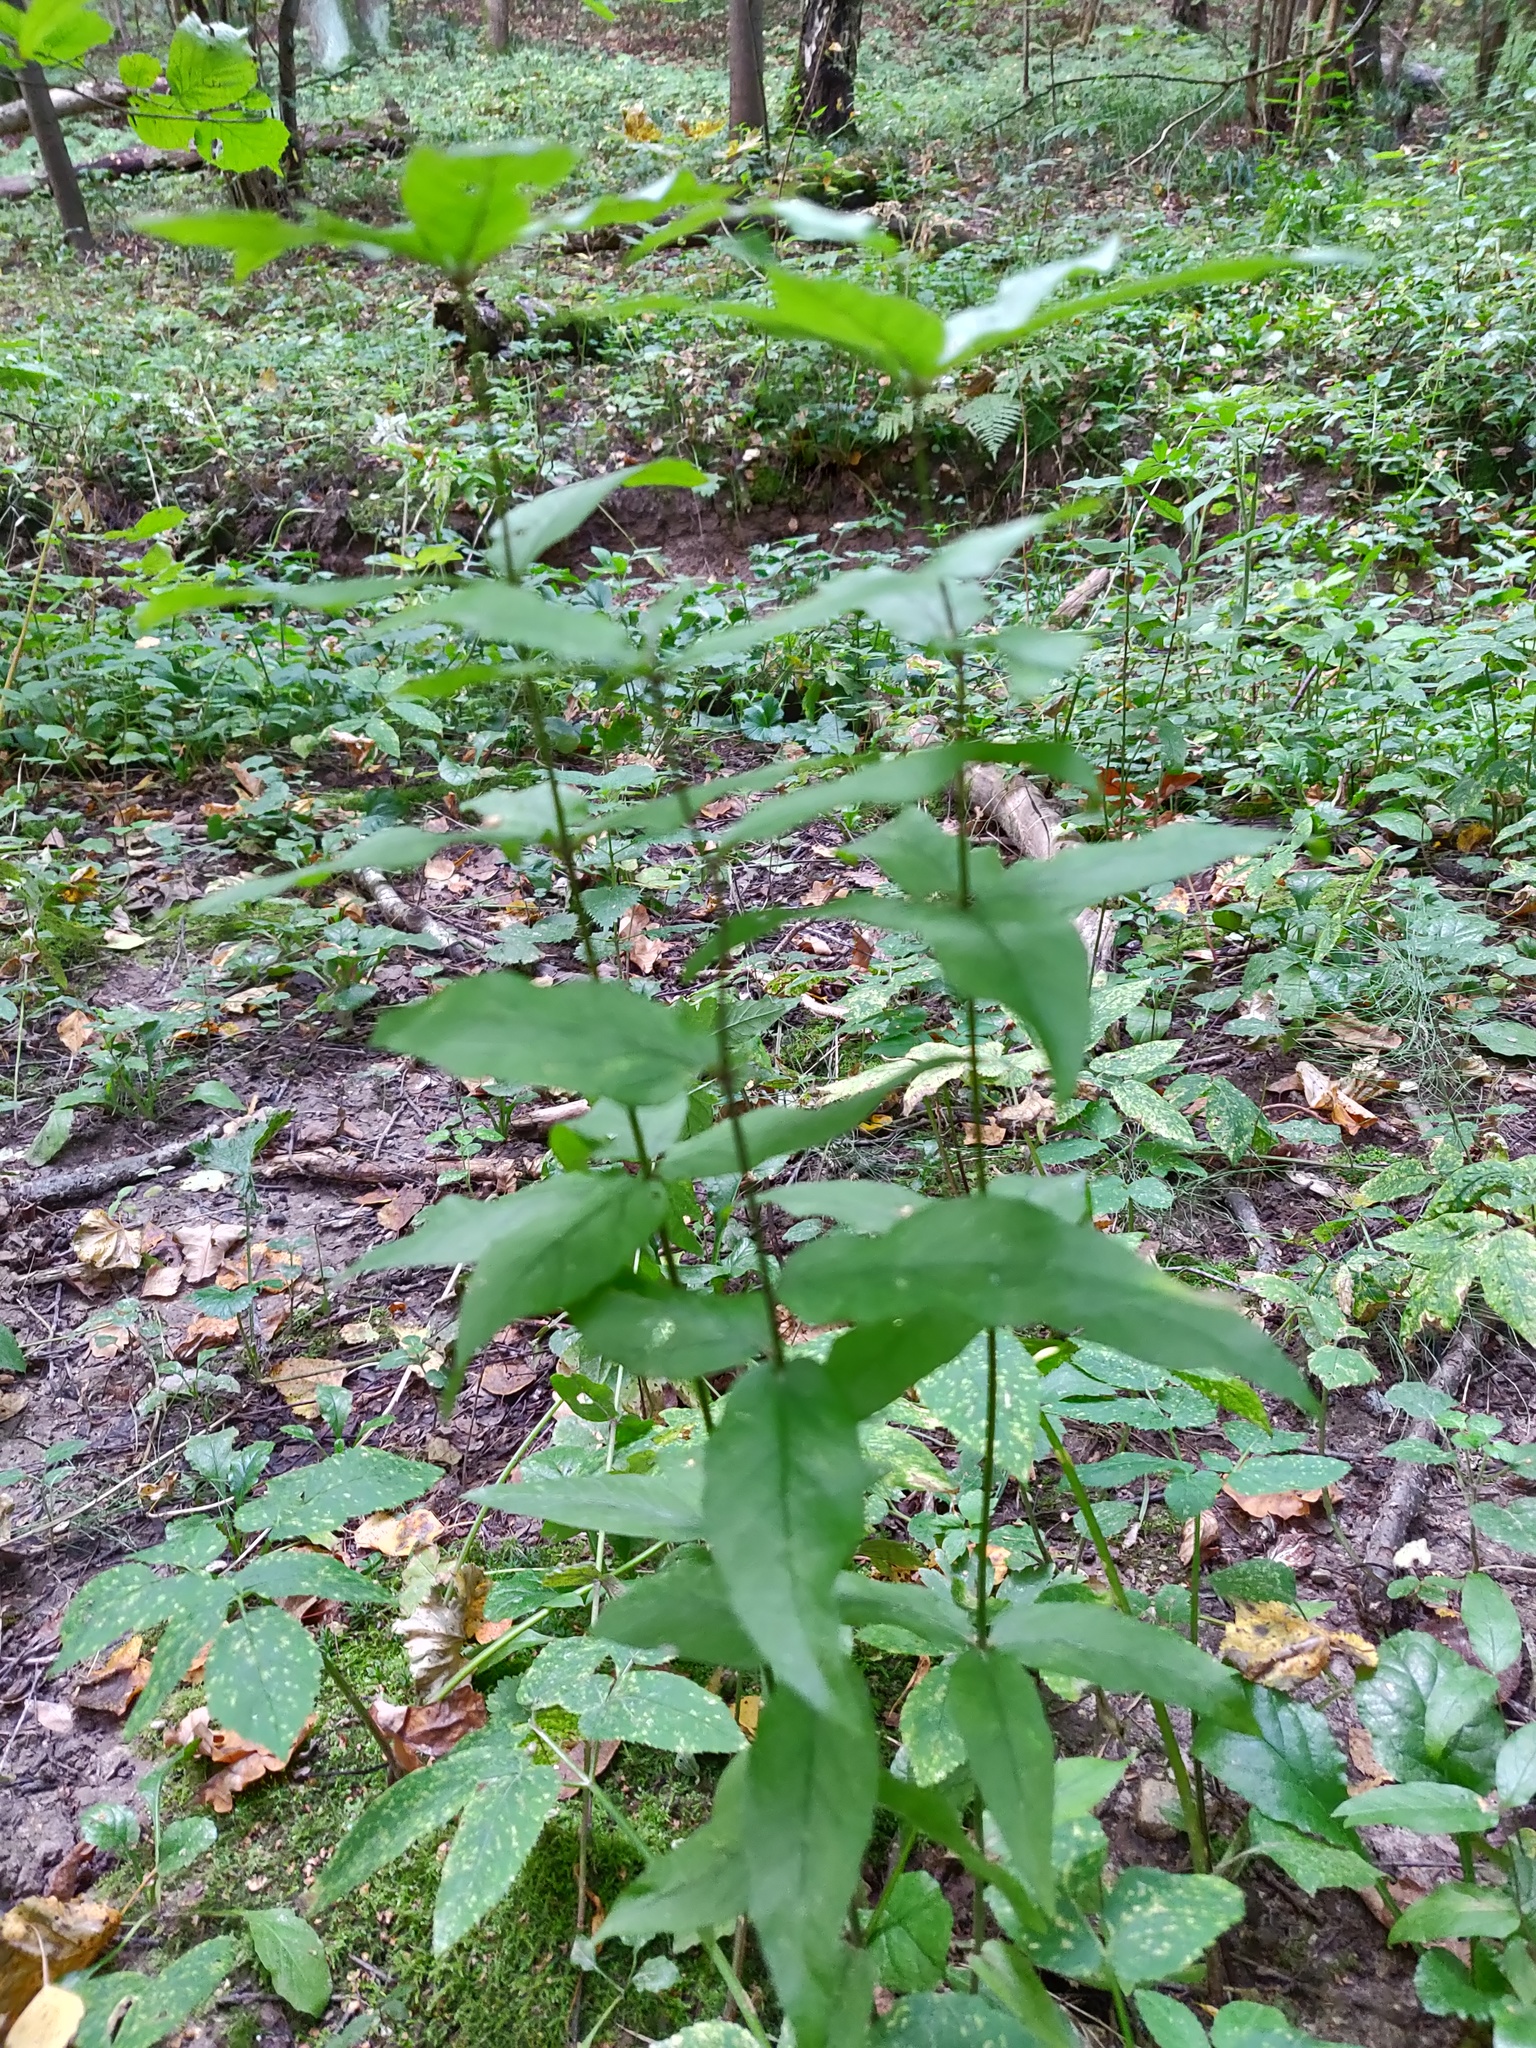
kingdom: Plantae
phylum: Tracheophyta
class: Magnoliopsida
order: Ericales
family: Primulaceae
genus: Lysimachia
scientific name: Lysimachia vulgaris
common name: Yellow loosestrife
